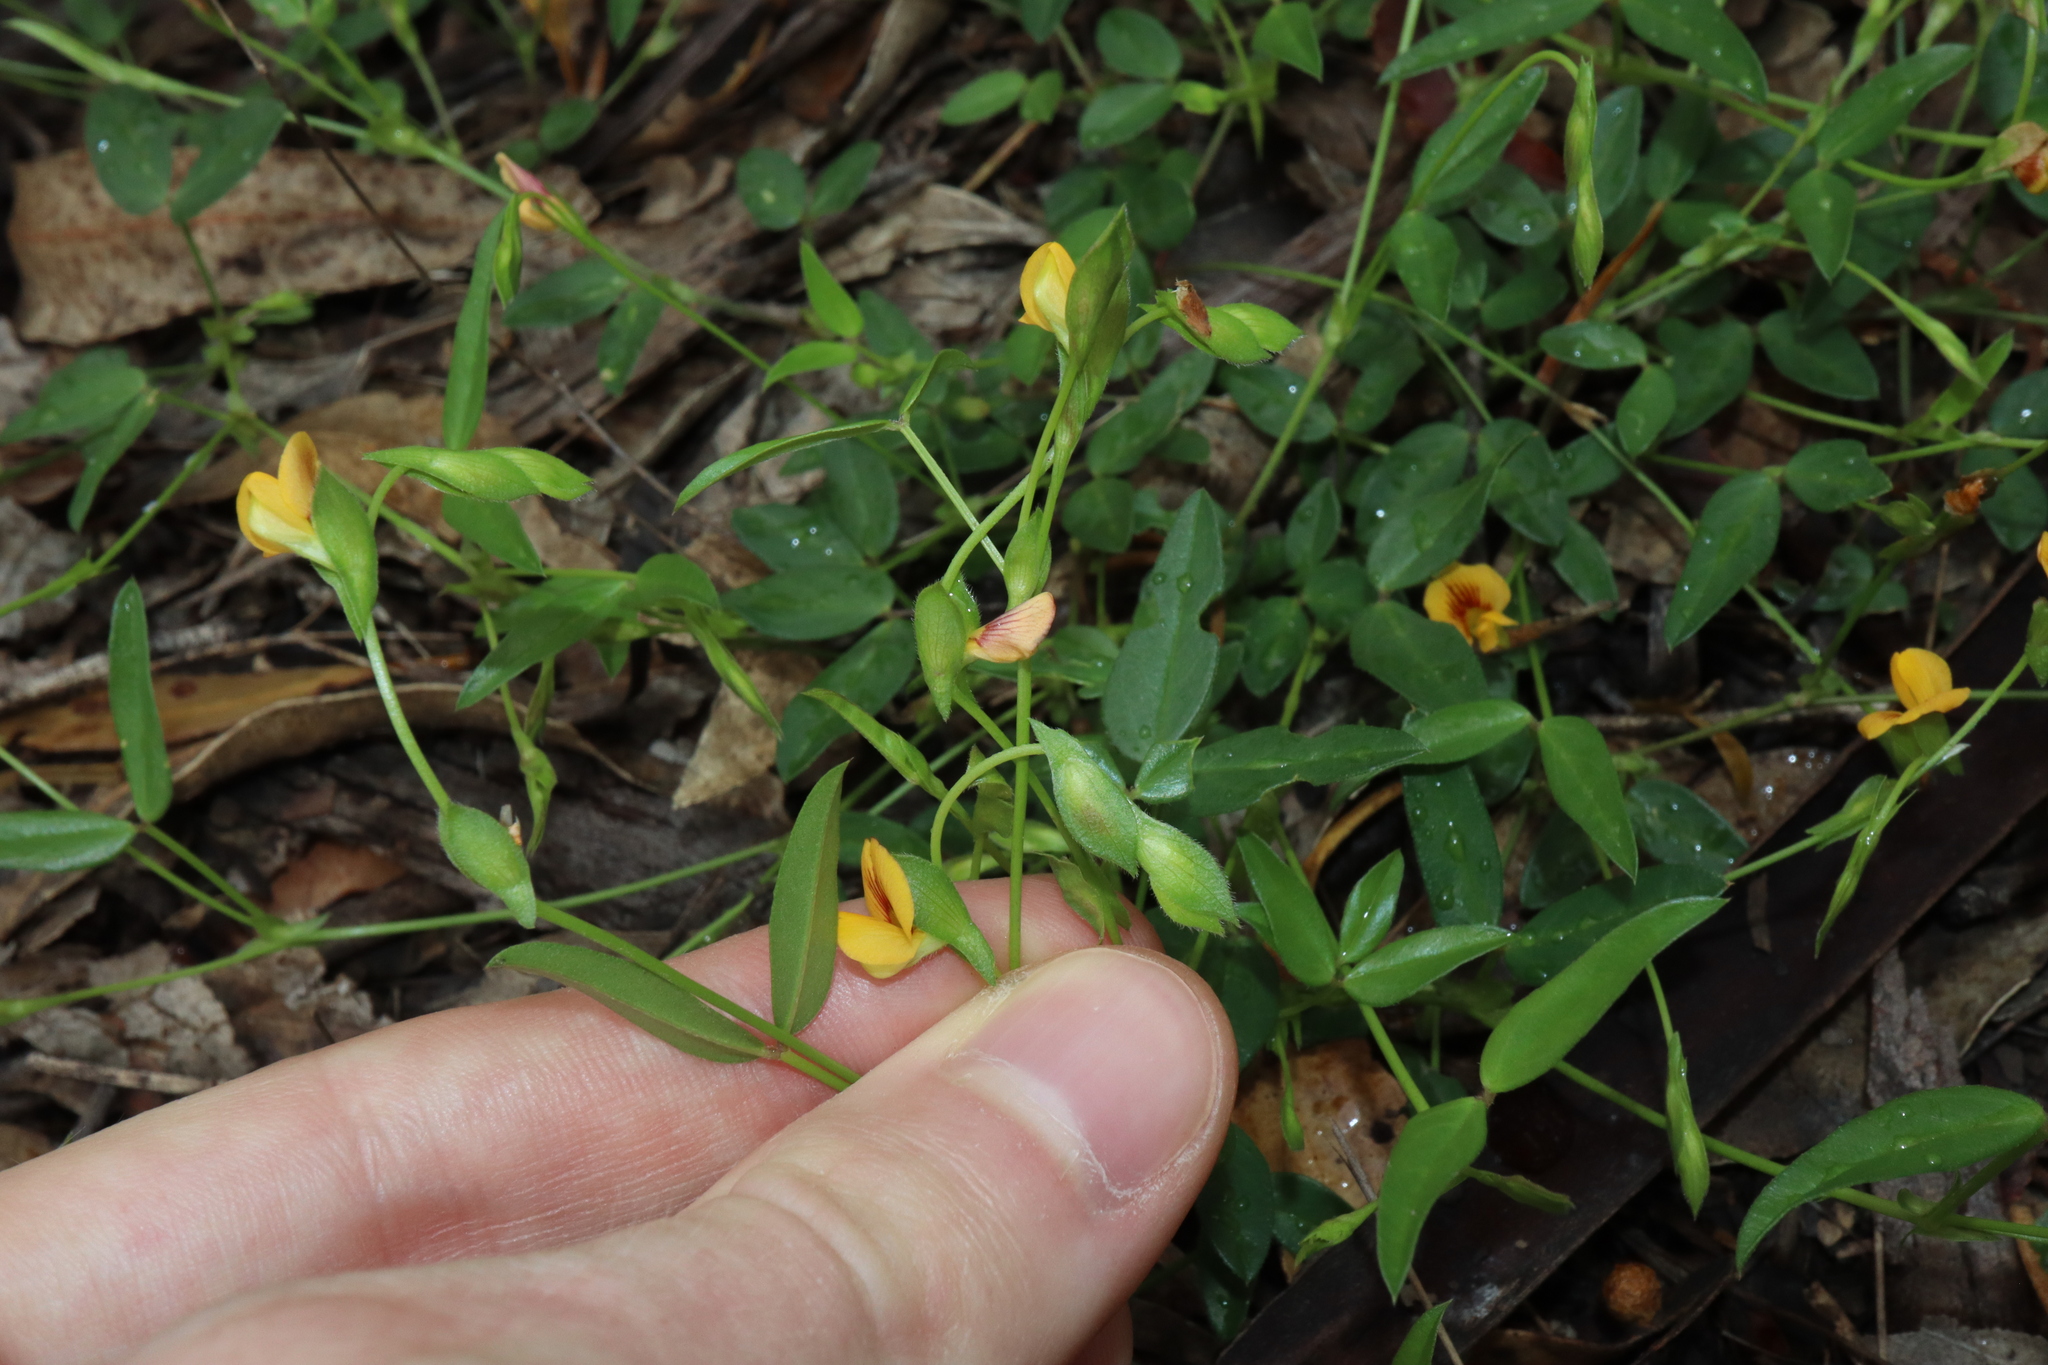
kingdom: Plantae
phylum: Tracheophyta
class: Magnoliopsida
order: Fabales
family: Fabaceae
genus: Zornia
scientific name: Zornia dyctiocarpa
